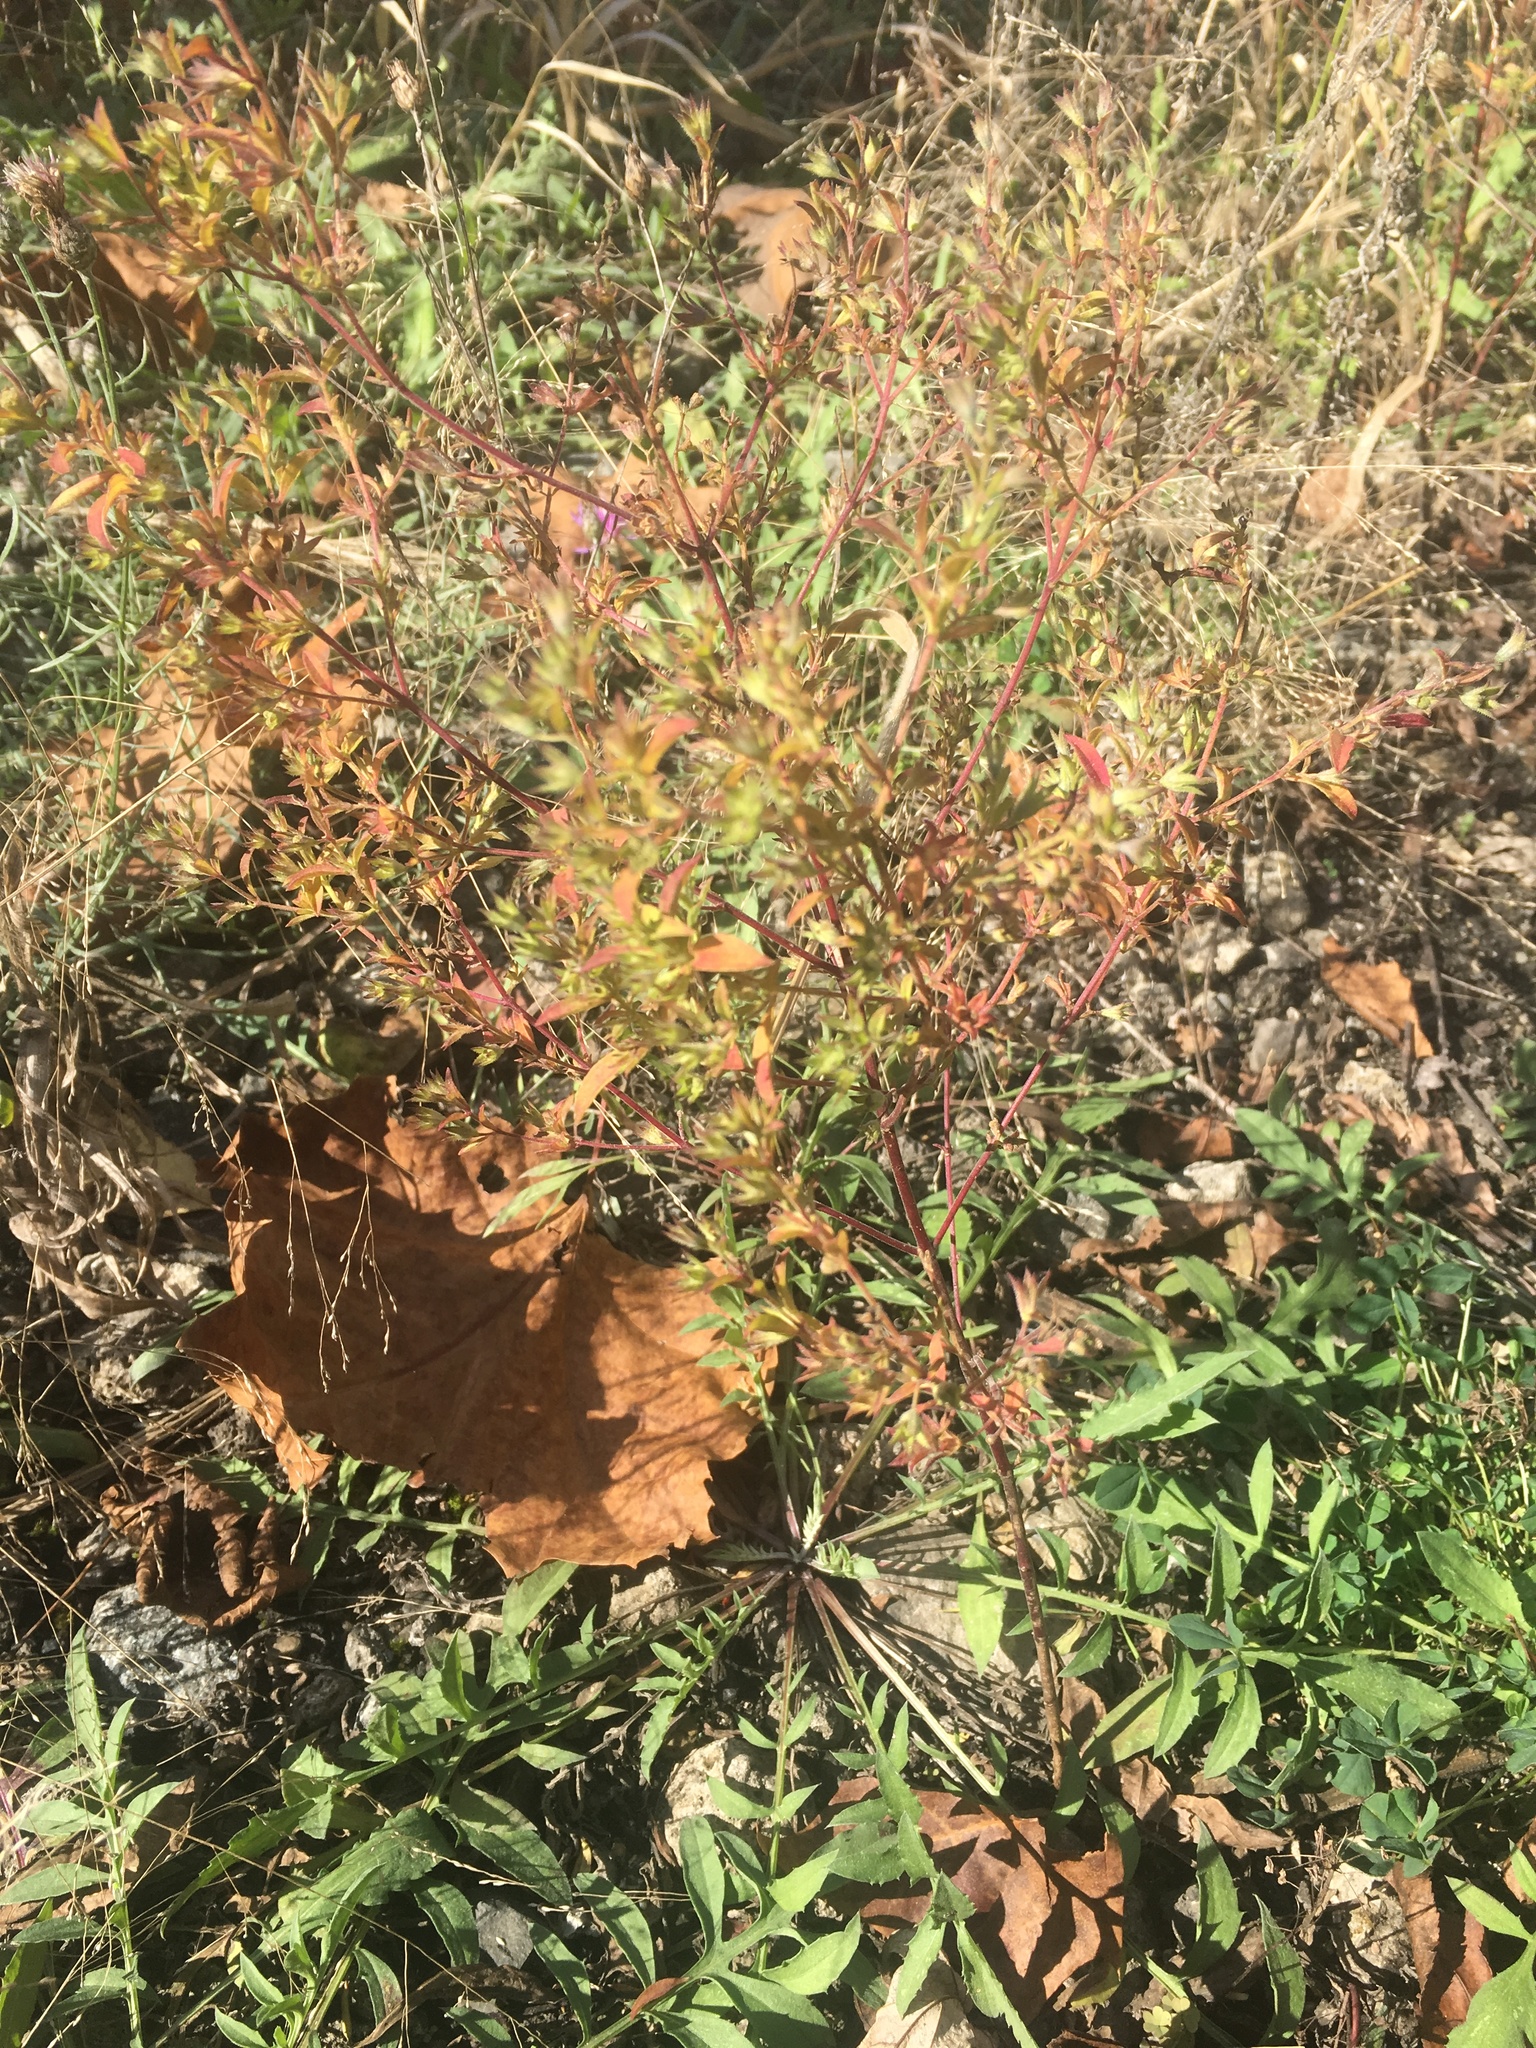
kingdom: Plantae
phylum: Tracheophyta
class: Magnoliopsida
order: Lamiales
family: Lamiaceae
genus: Trichostema
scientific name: Trichostema brachiatum
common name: False pennyroyal
